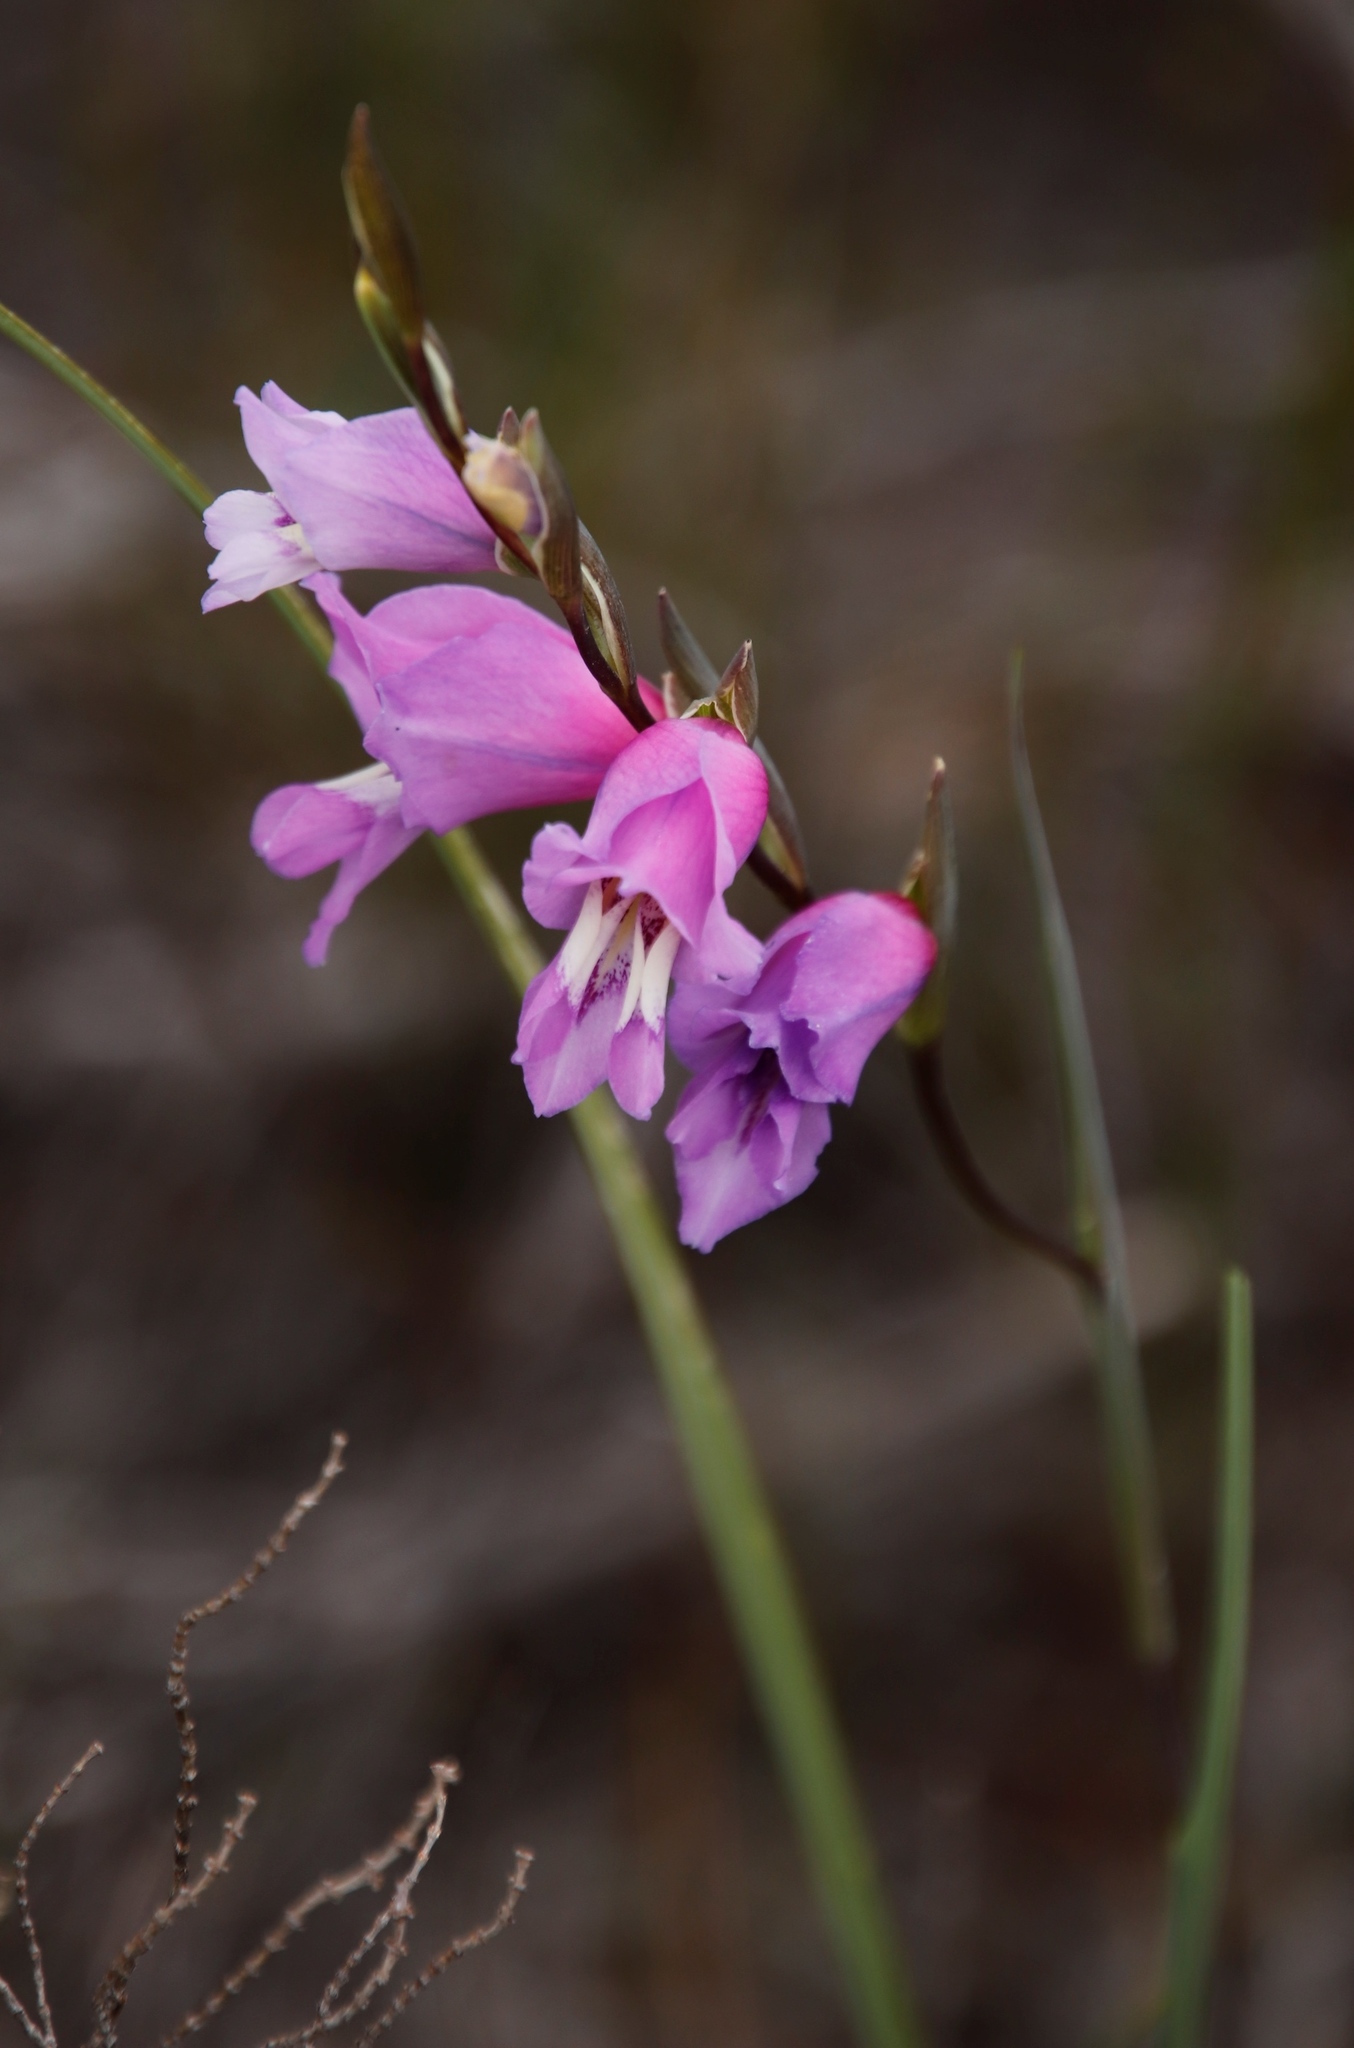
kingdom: Plantae
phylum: Tracheophyta
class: Liliopsida
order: Asparagales
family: Iridaceae
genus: Gladiolus
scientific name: Gladiolus carinatus
